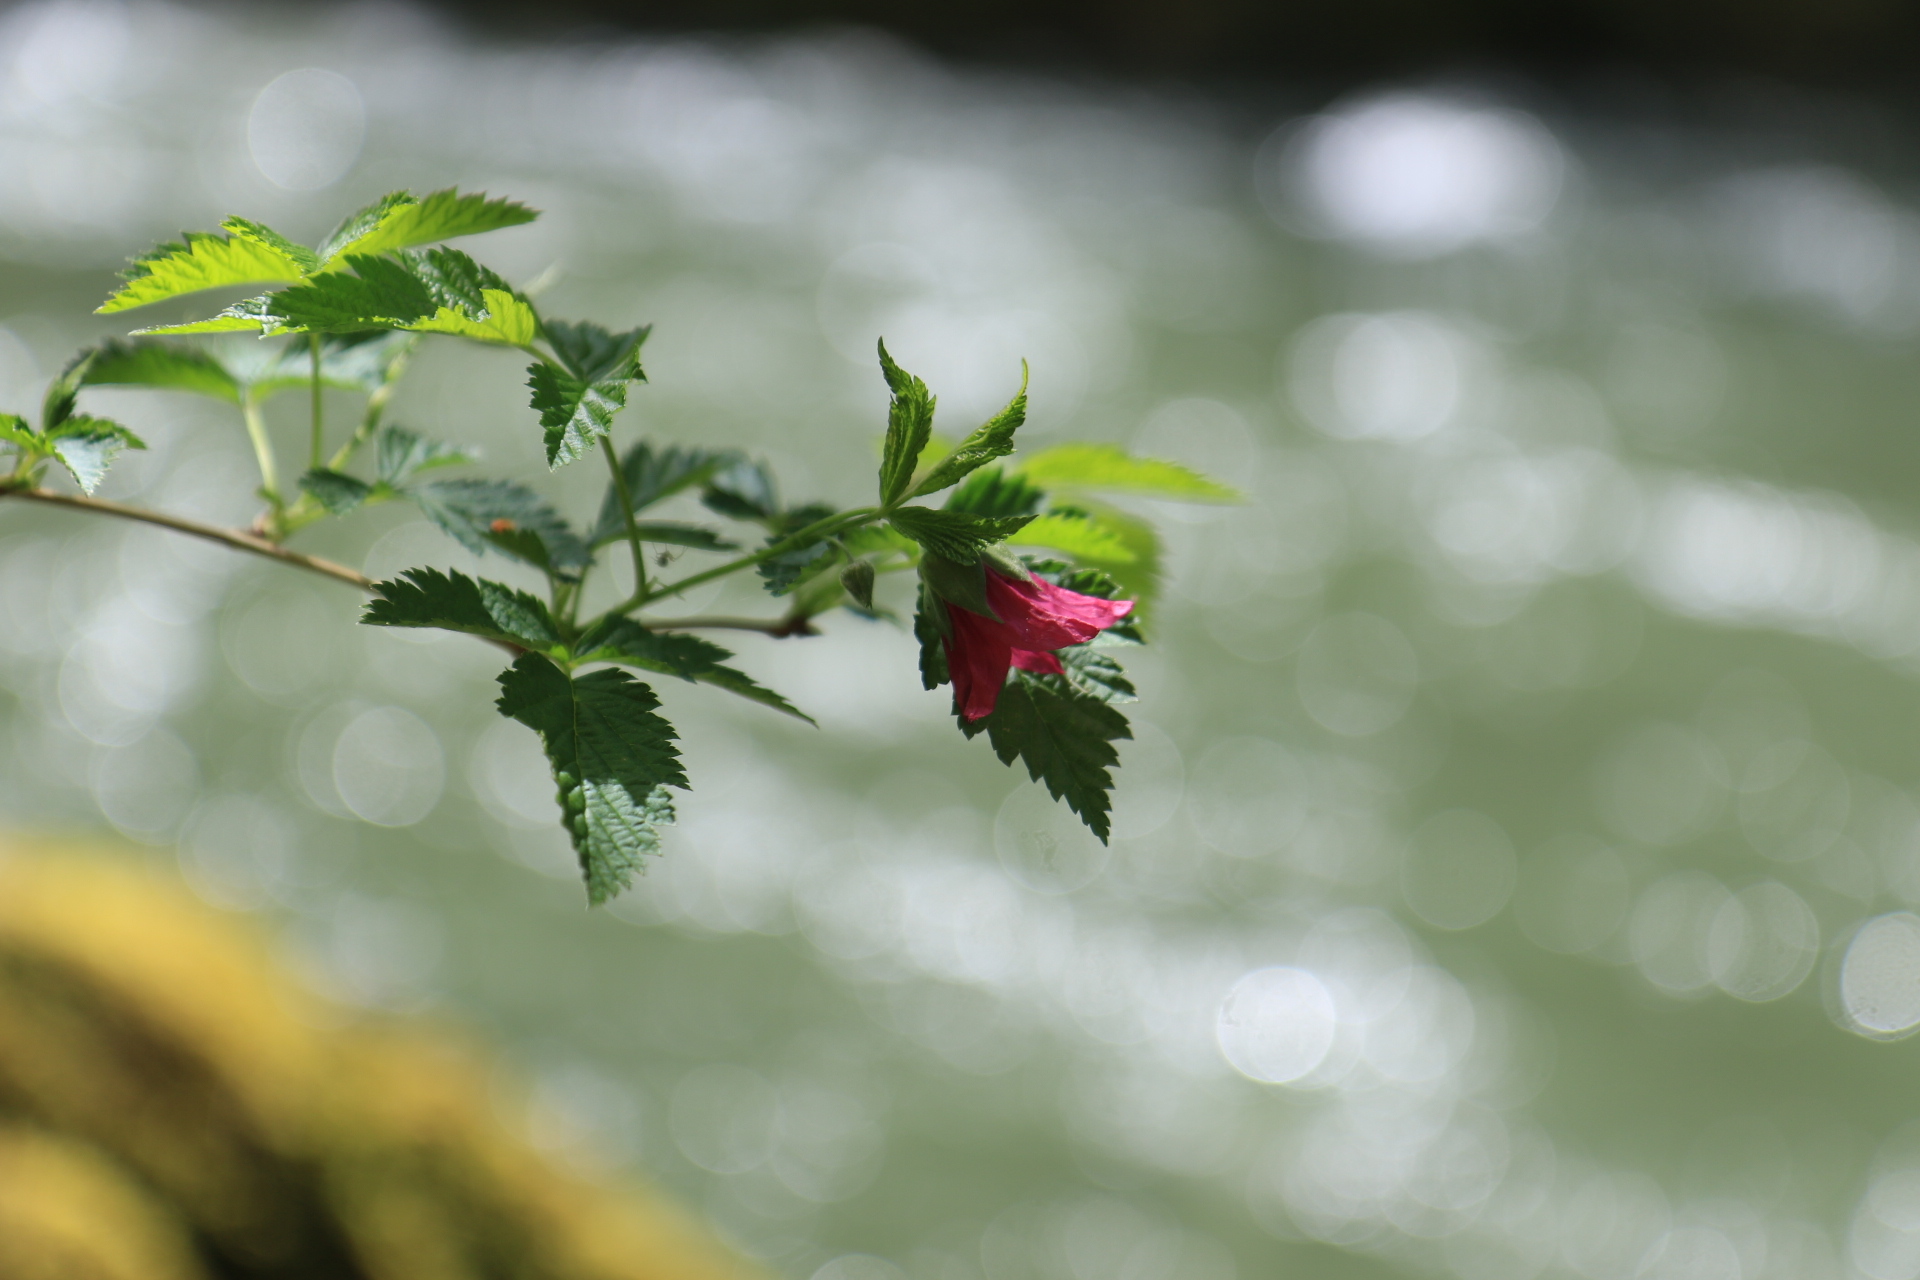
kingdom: Plantae
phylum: Tracheophyta
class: Magnoliopsida
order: Rosales
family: Rosaceae
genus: Rubus
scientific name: Rubus spectabilis
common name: Salmonberry
